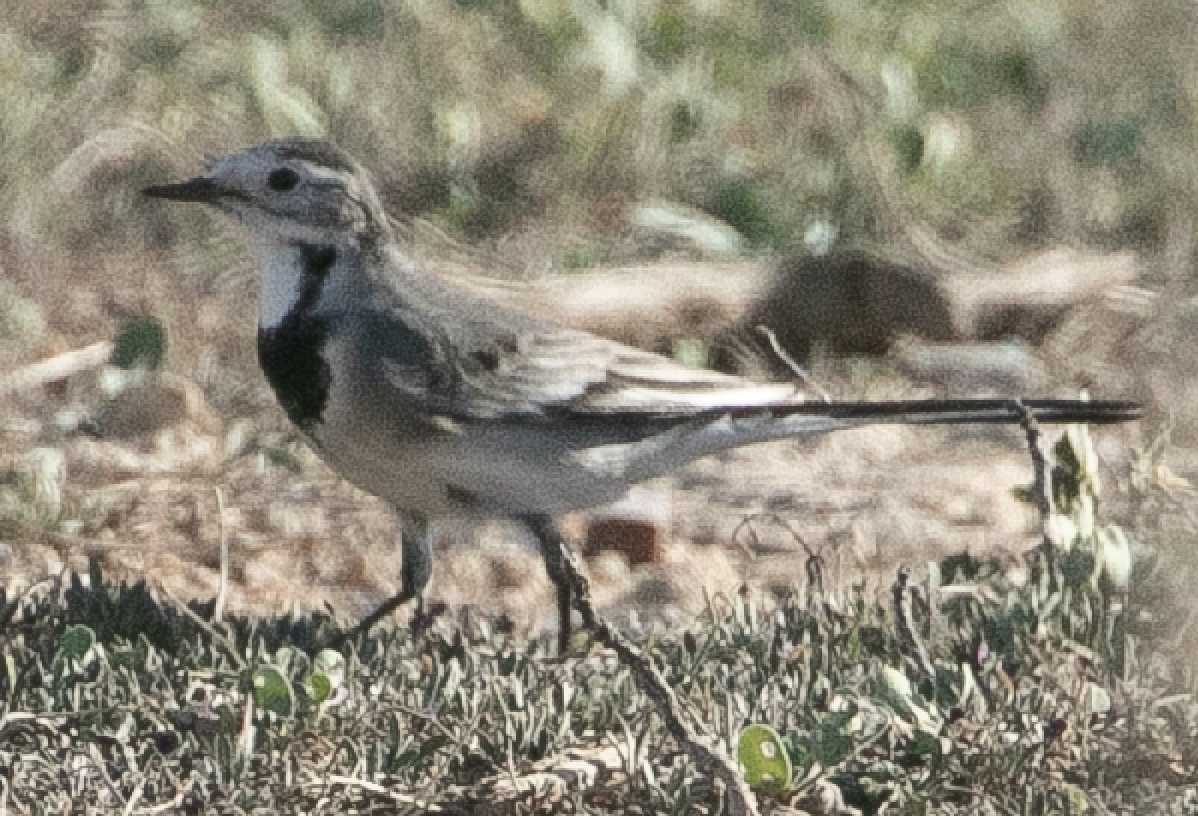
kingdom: Animalia
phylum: Chordata
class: Aves
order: Passeriformes
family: Motacillidae
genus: Motacilla
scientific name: Motacilla alba
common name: White wagtail
